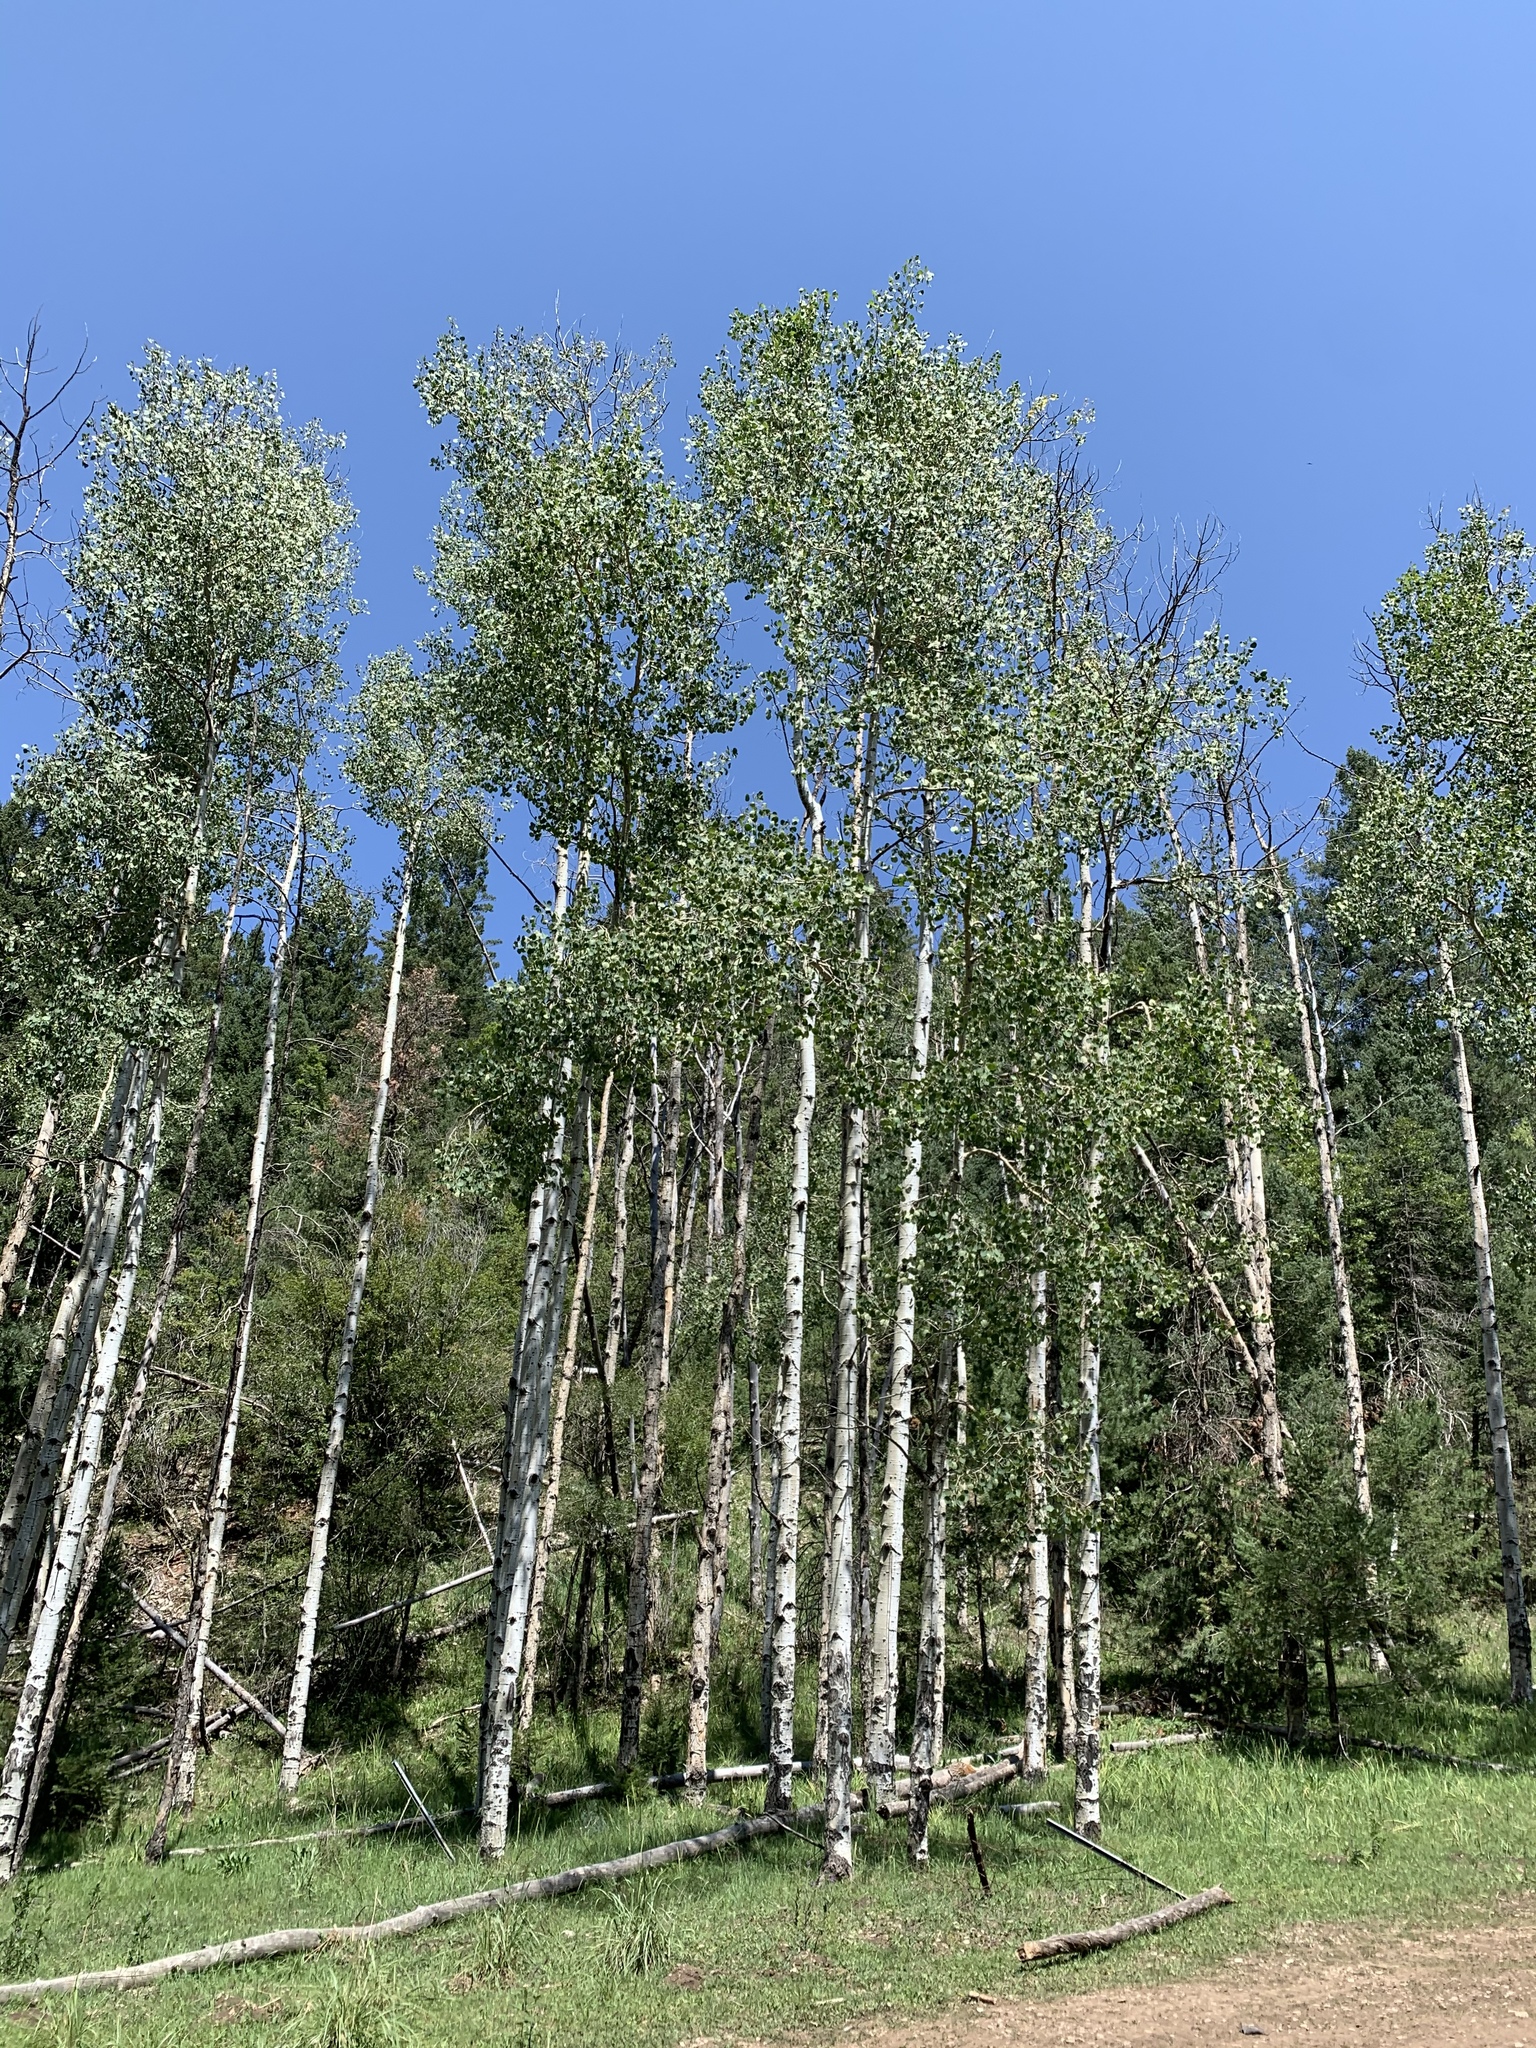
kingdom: Plantae
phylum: Tracheophyta
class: Magnoliopsida
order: Malpighiales
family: Salicaceae
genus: Populus
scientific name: Populus tremuloides
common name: Quaking aspen
